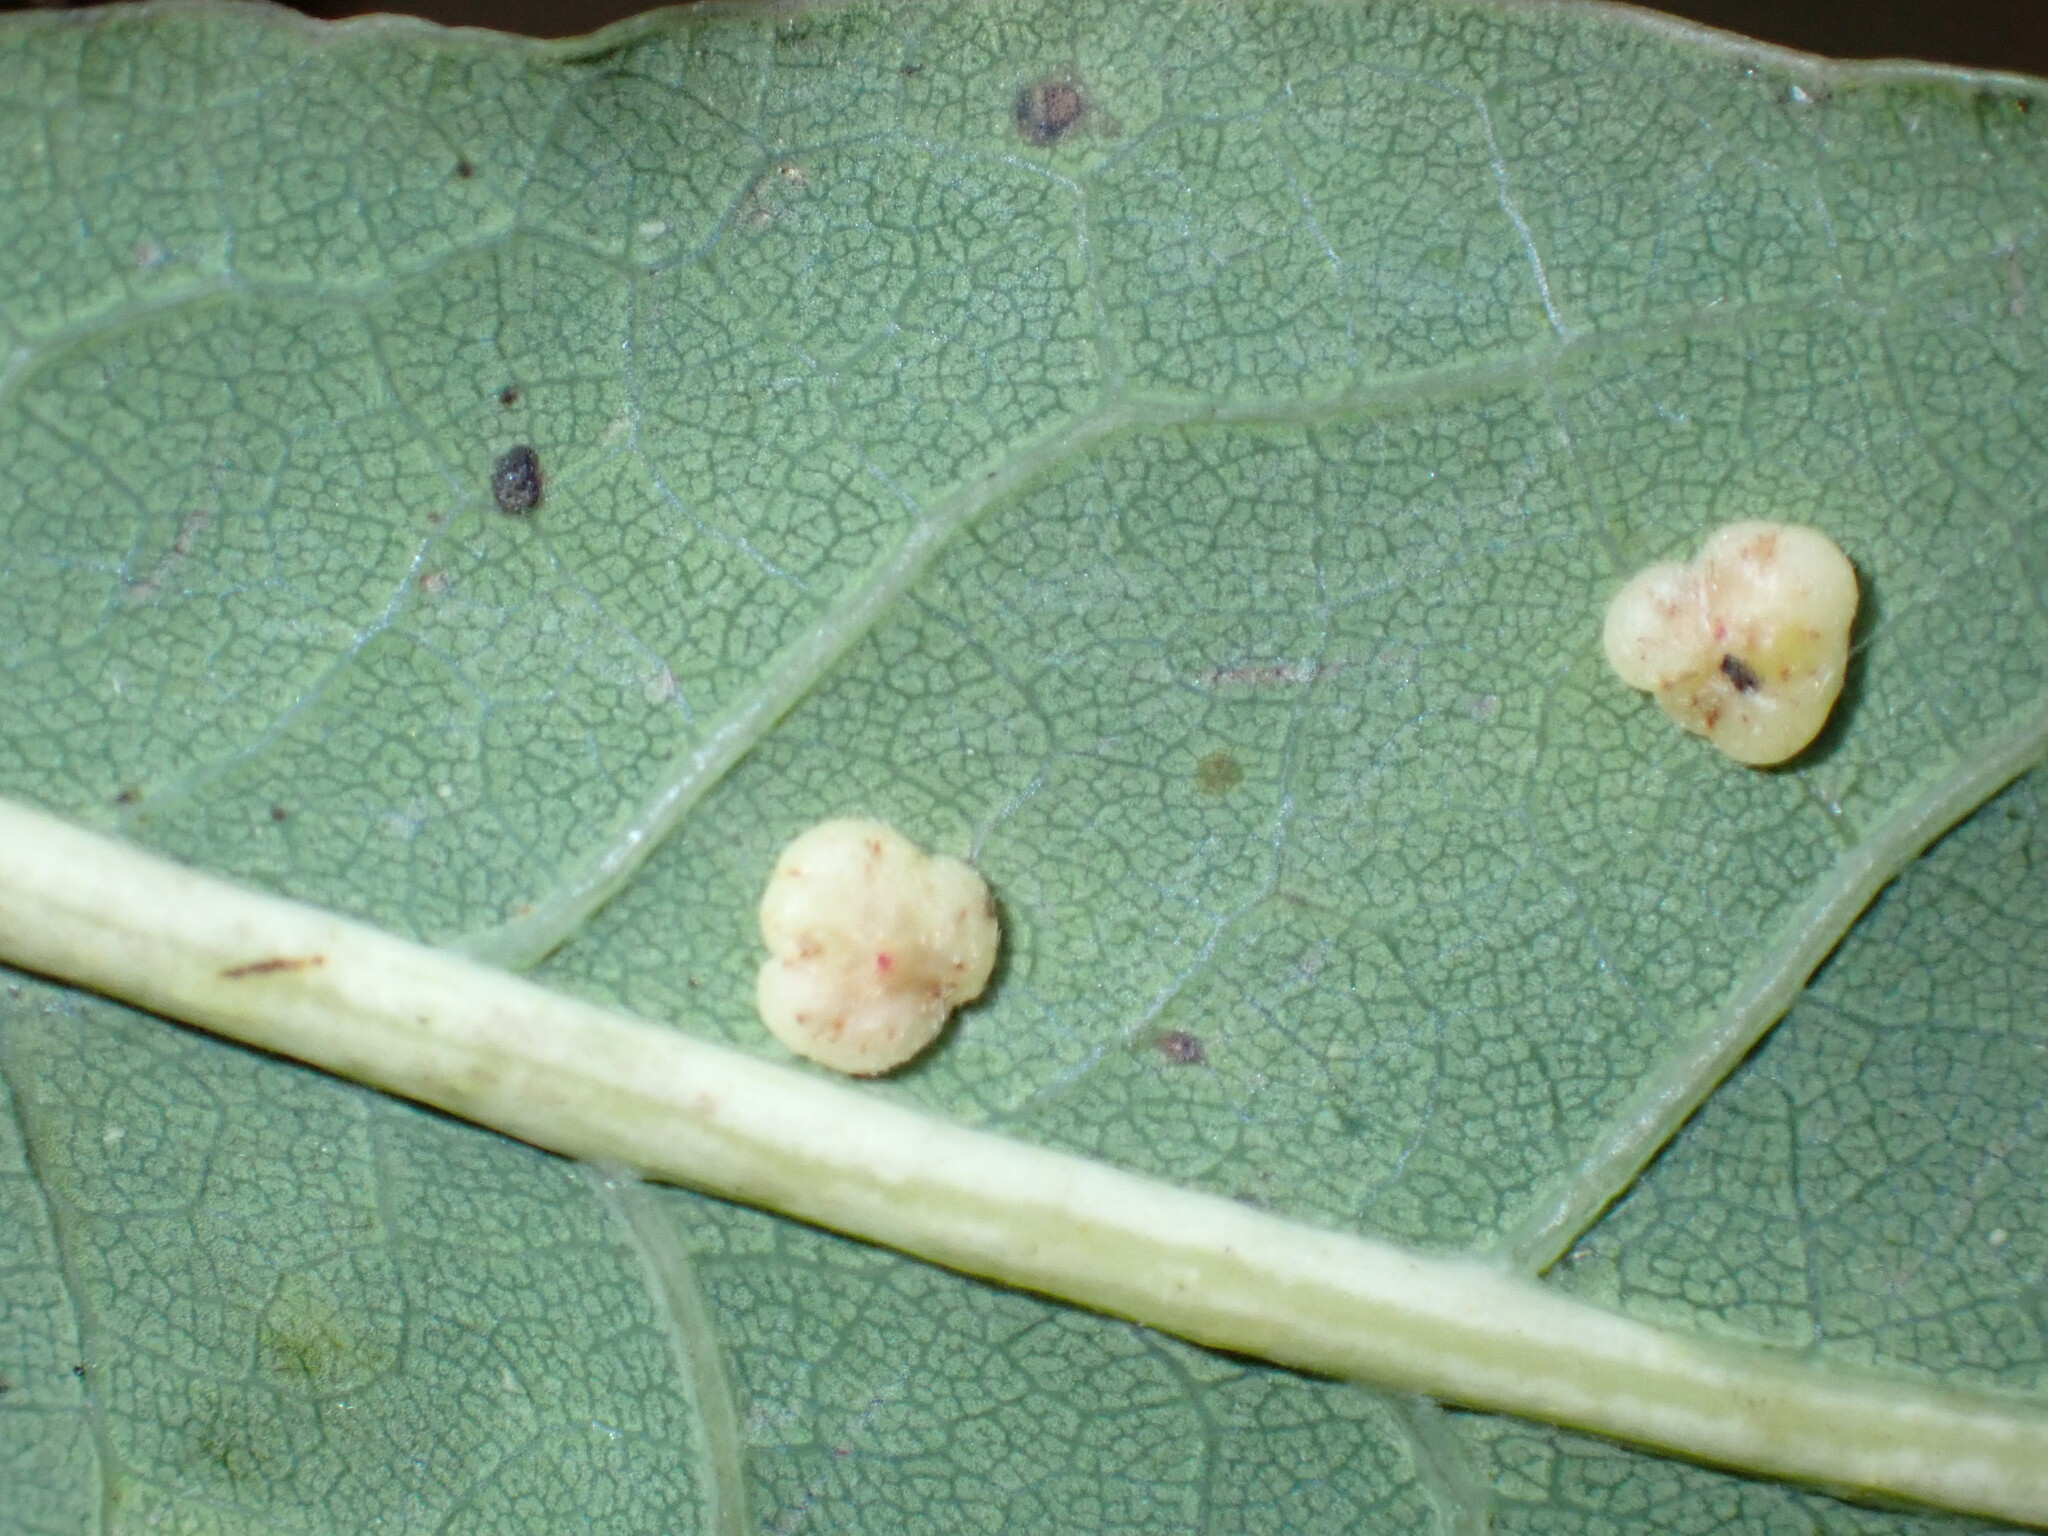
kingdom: Animalia
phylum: Arthropoda
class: Insecta
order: Hymenoptera
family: Cynipidae
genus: Neuroterus
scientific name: Neuroterus albipes
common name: Smooth spangle gall
